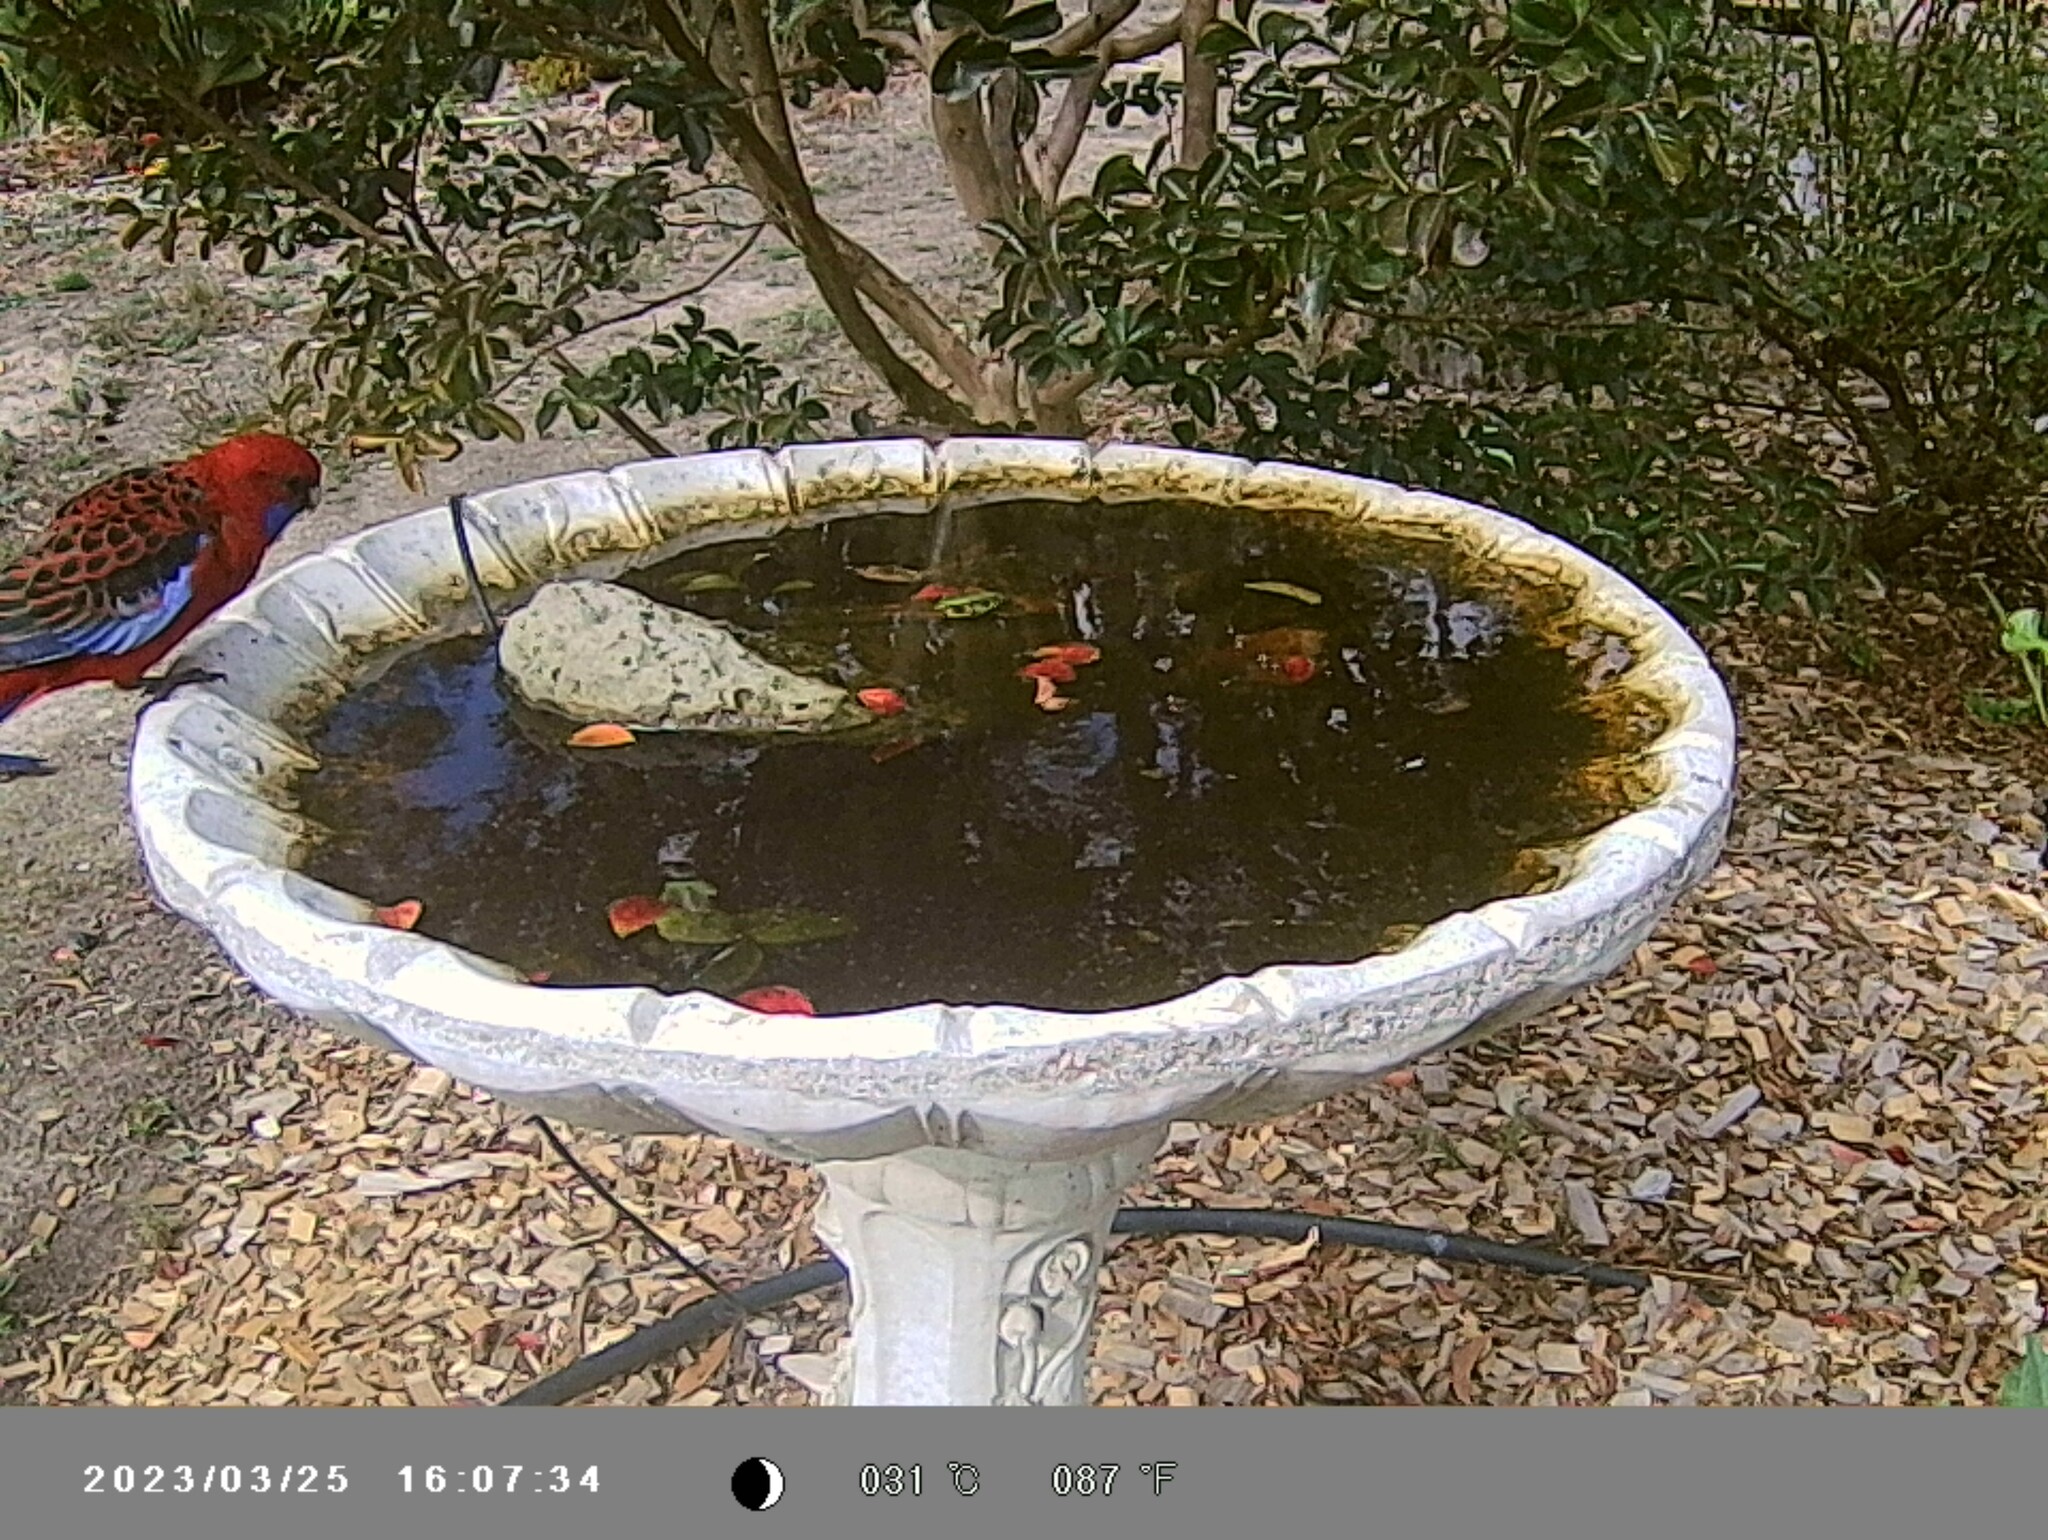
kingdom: Animalia
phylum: Chordata
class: Aves
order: Psittaciformes
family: Psittacidae
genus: Platycercus
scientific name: Platycercus elegans
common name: Crimson rosella
